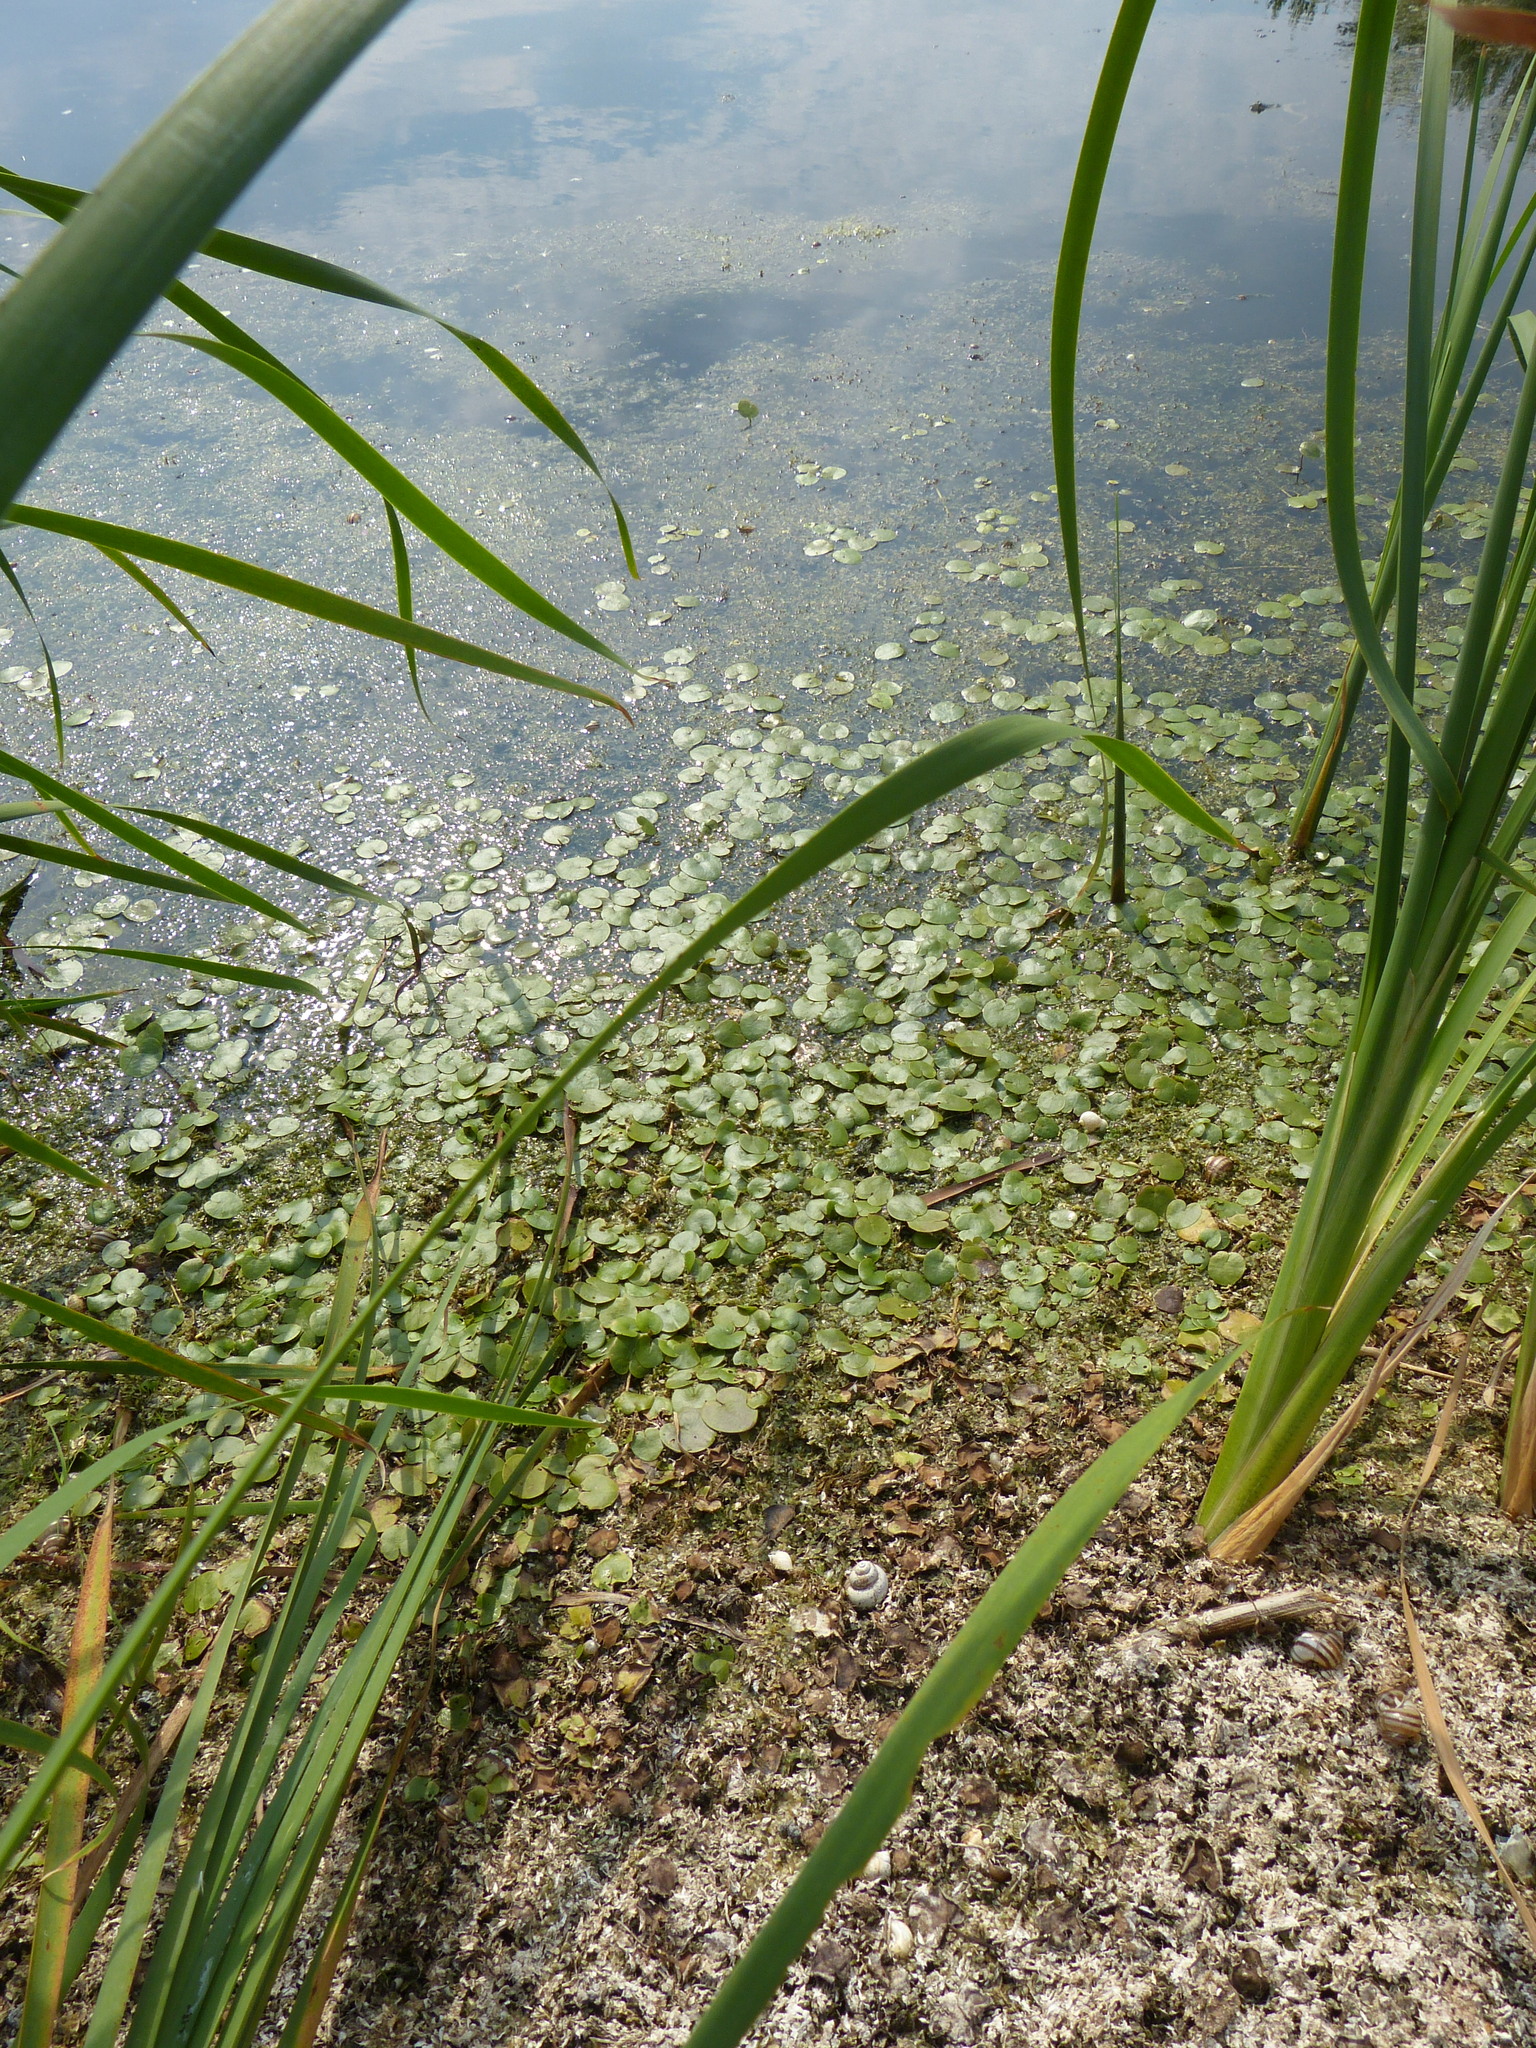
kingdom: Plantae
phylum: Tracheophyta
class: Liliopsida
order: Alismatales
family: Hydrocharitaceae
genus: Hydrocharis
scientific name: Hydrocharis morsus-ranae
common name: Frogbit
